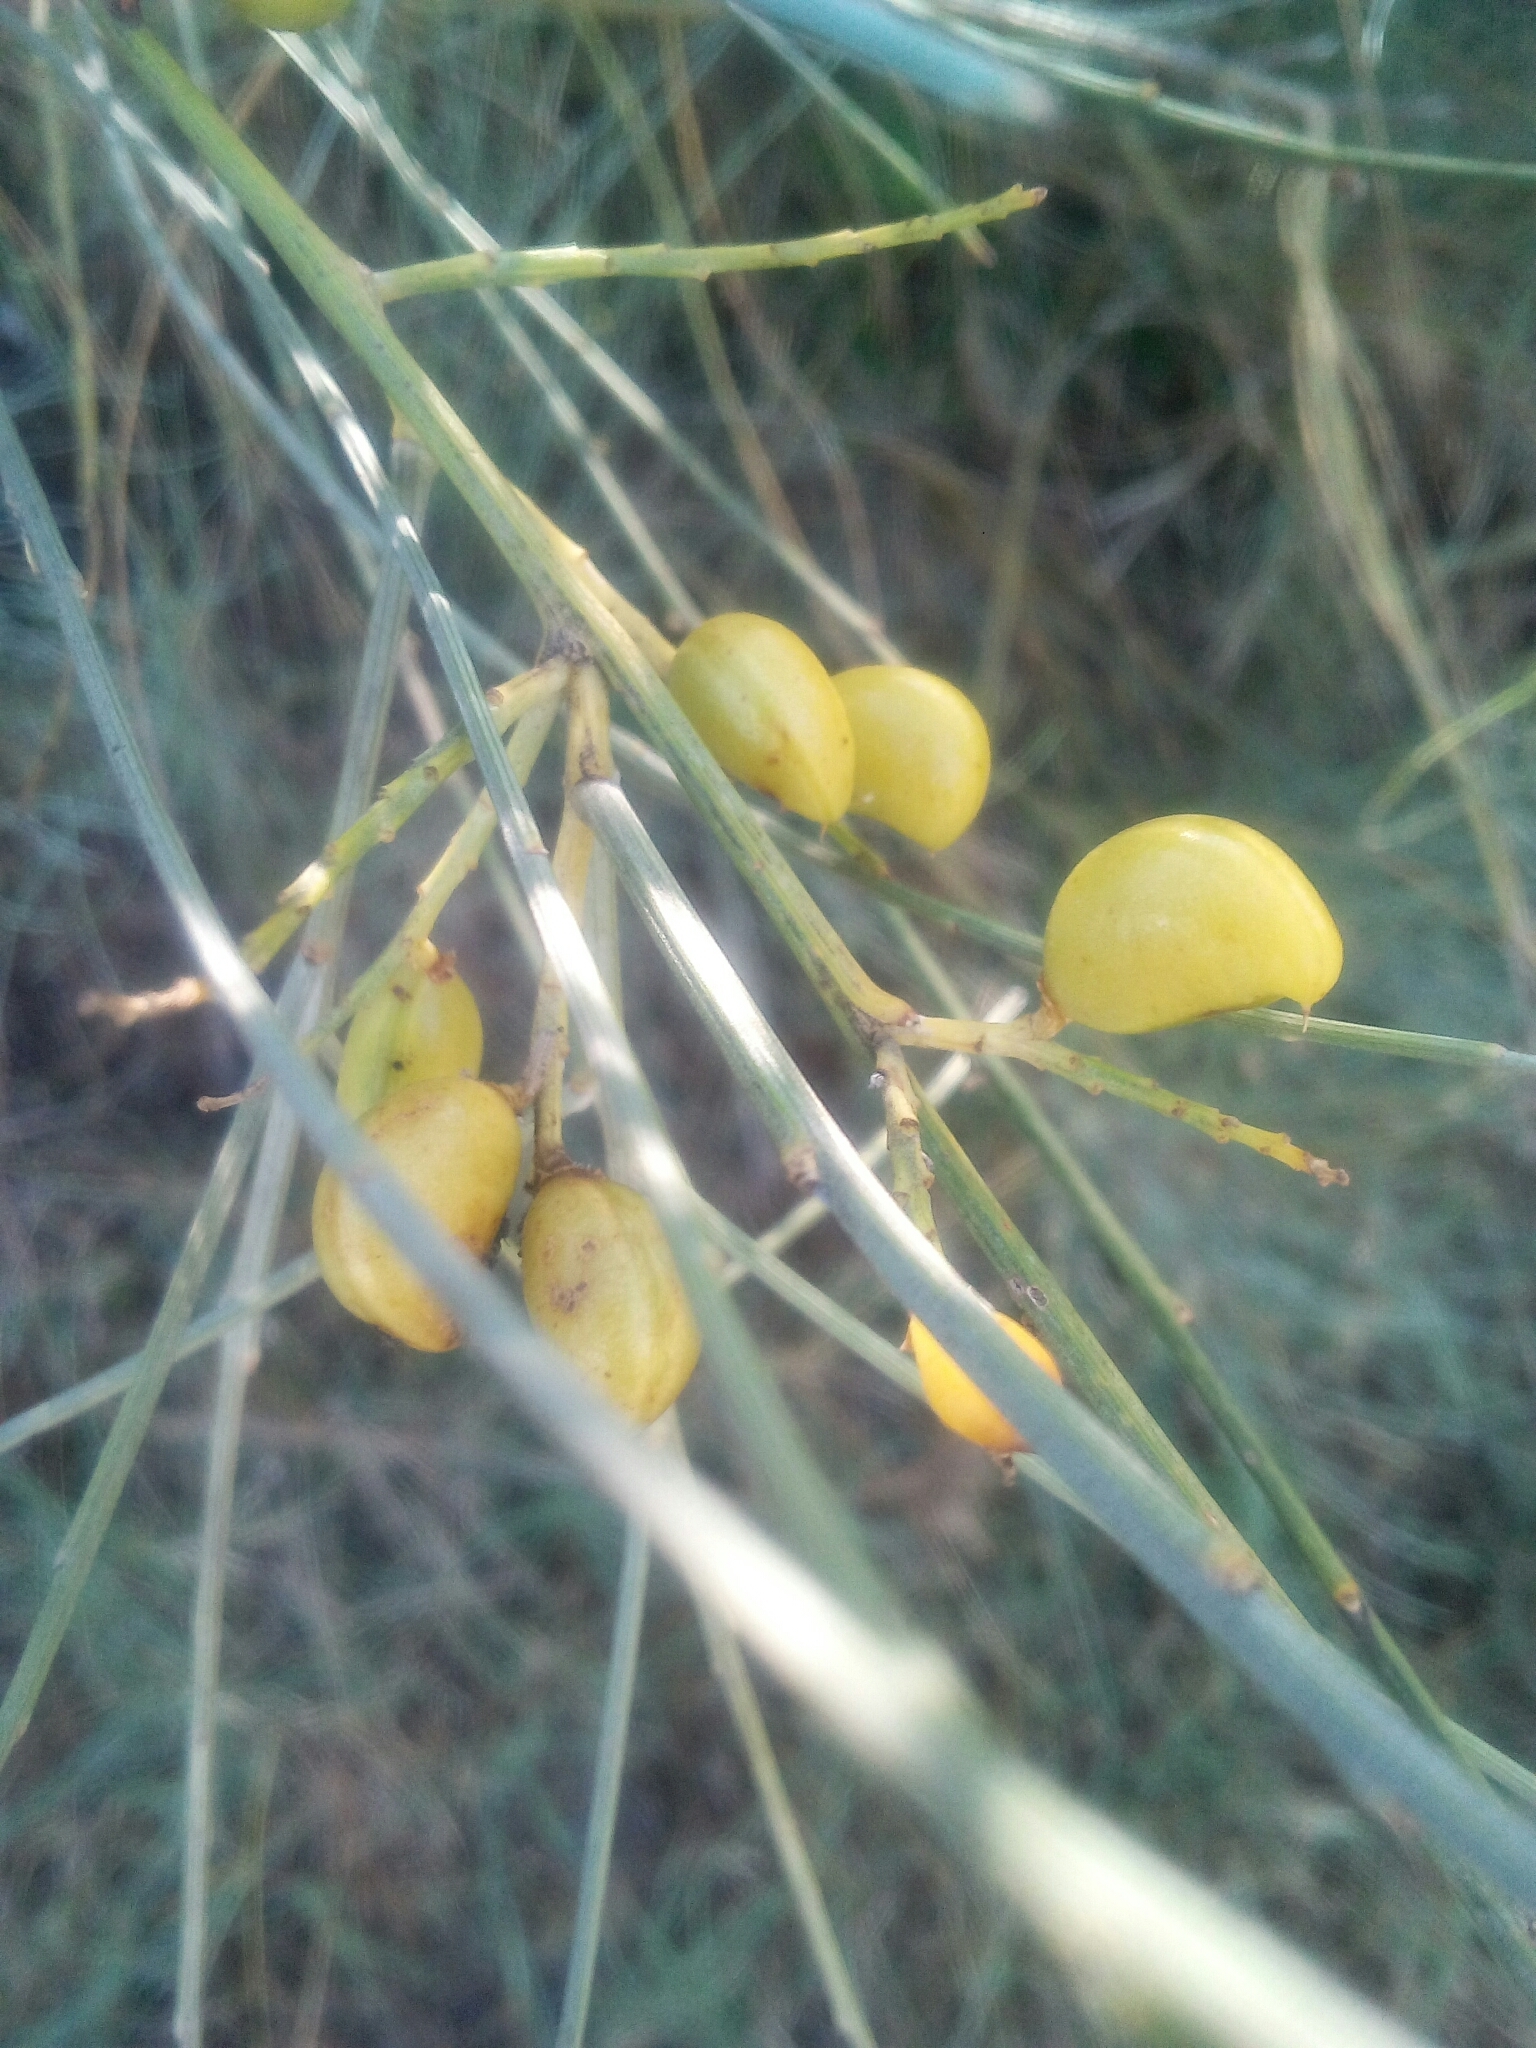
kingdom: Plantae
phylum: Tracheophyta
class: Magnoliopsida
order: Fabales
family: Fabaceae
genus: Retama
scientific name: Retama sphaerocarpa
